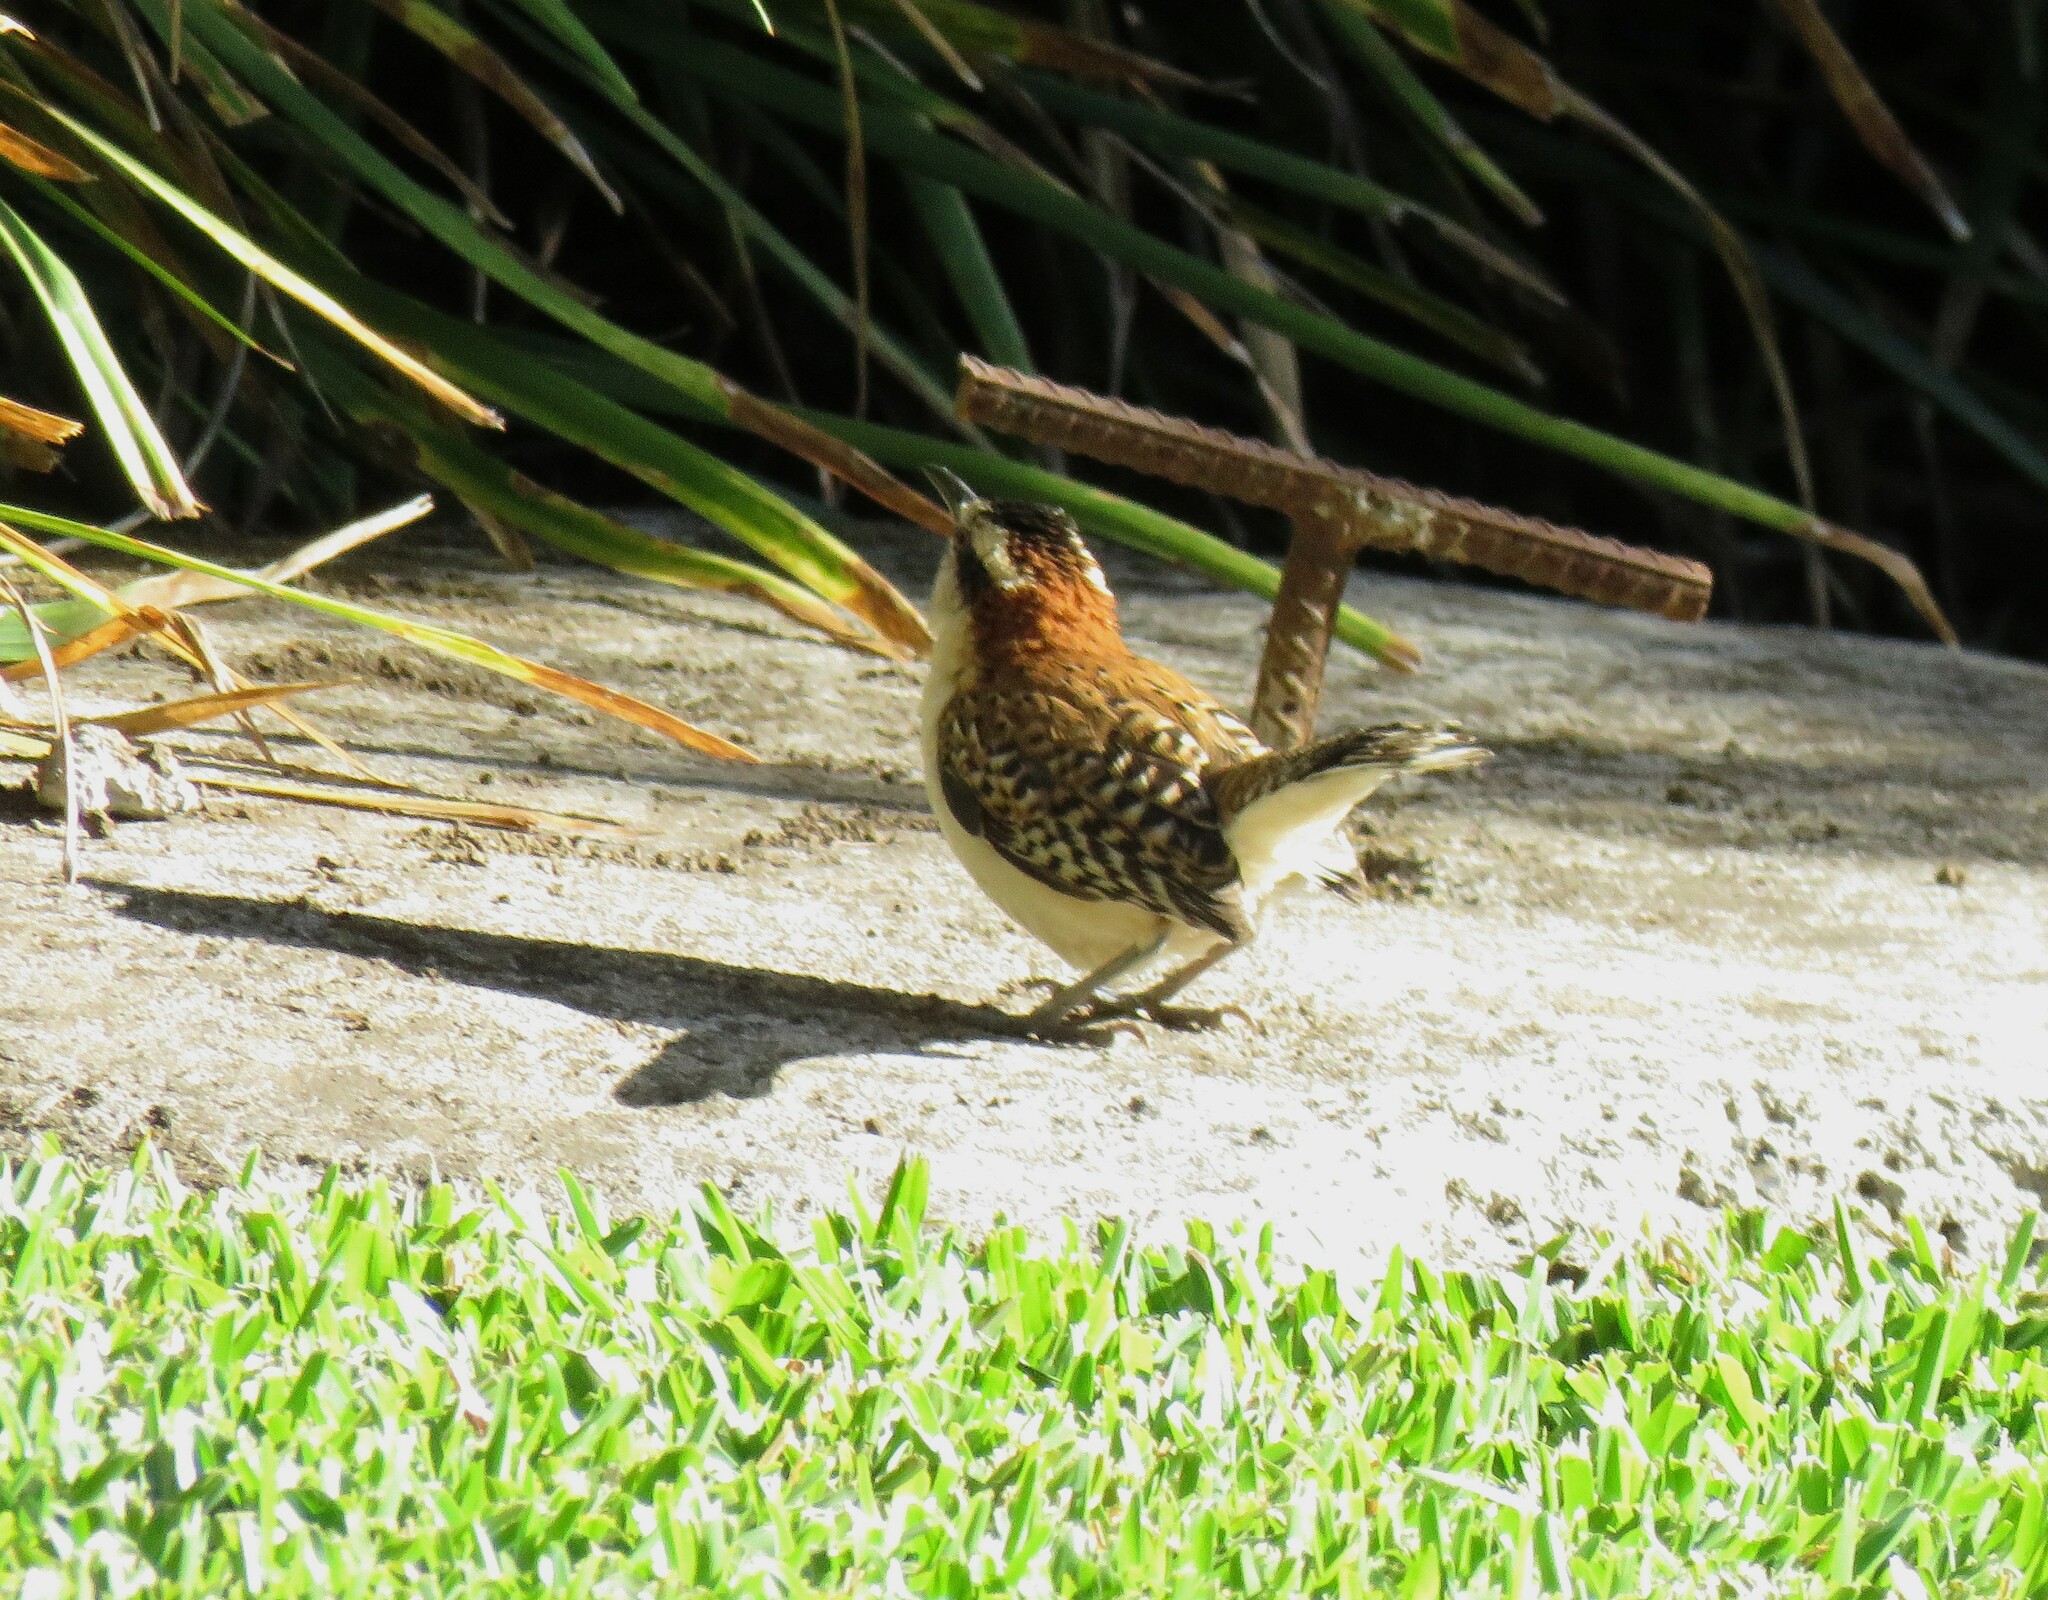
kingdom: Animalia
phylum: Chordata
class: Aves
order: Passeriformes
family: Troglodytidae
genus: Campylorhynchus
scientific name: Campylorhynchus rufinucha
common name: Rufous-naped wren
